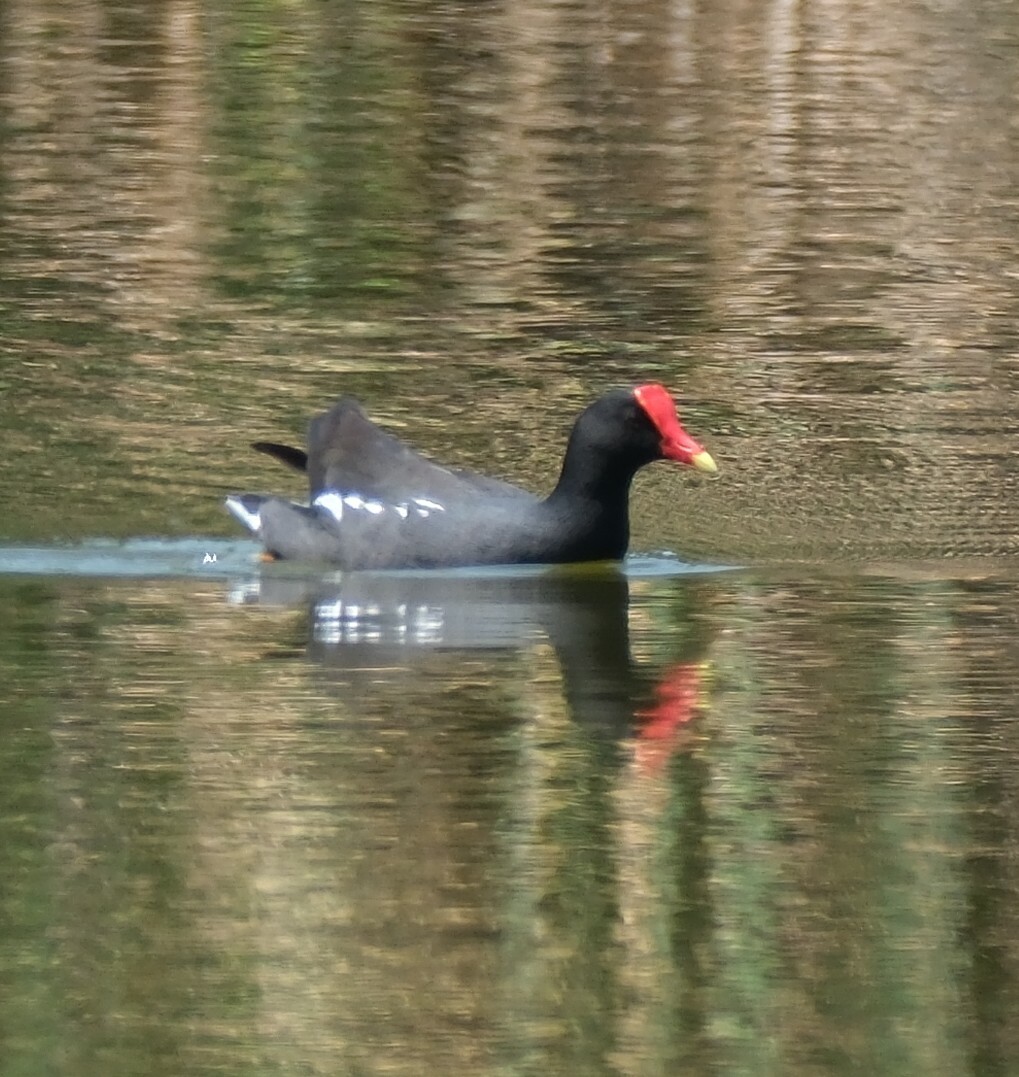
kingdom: Animalia
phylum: Chordata
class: Aves
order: Gruiformes
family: Rallidae
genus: Gallinula
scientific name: Gallinula chloropus
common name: Common moorhen
